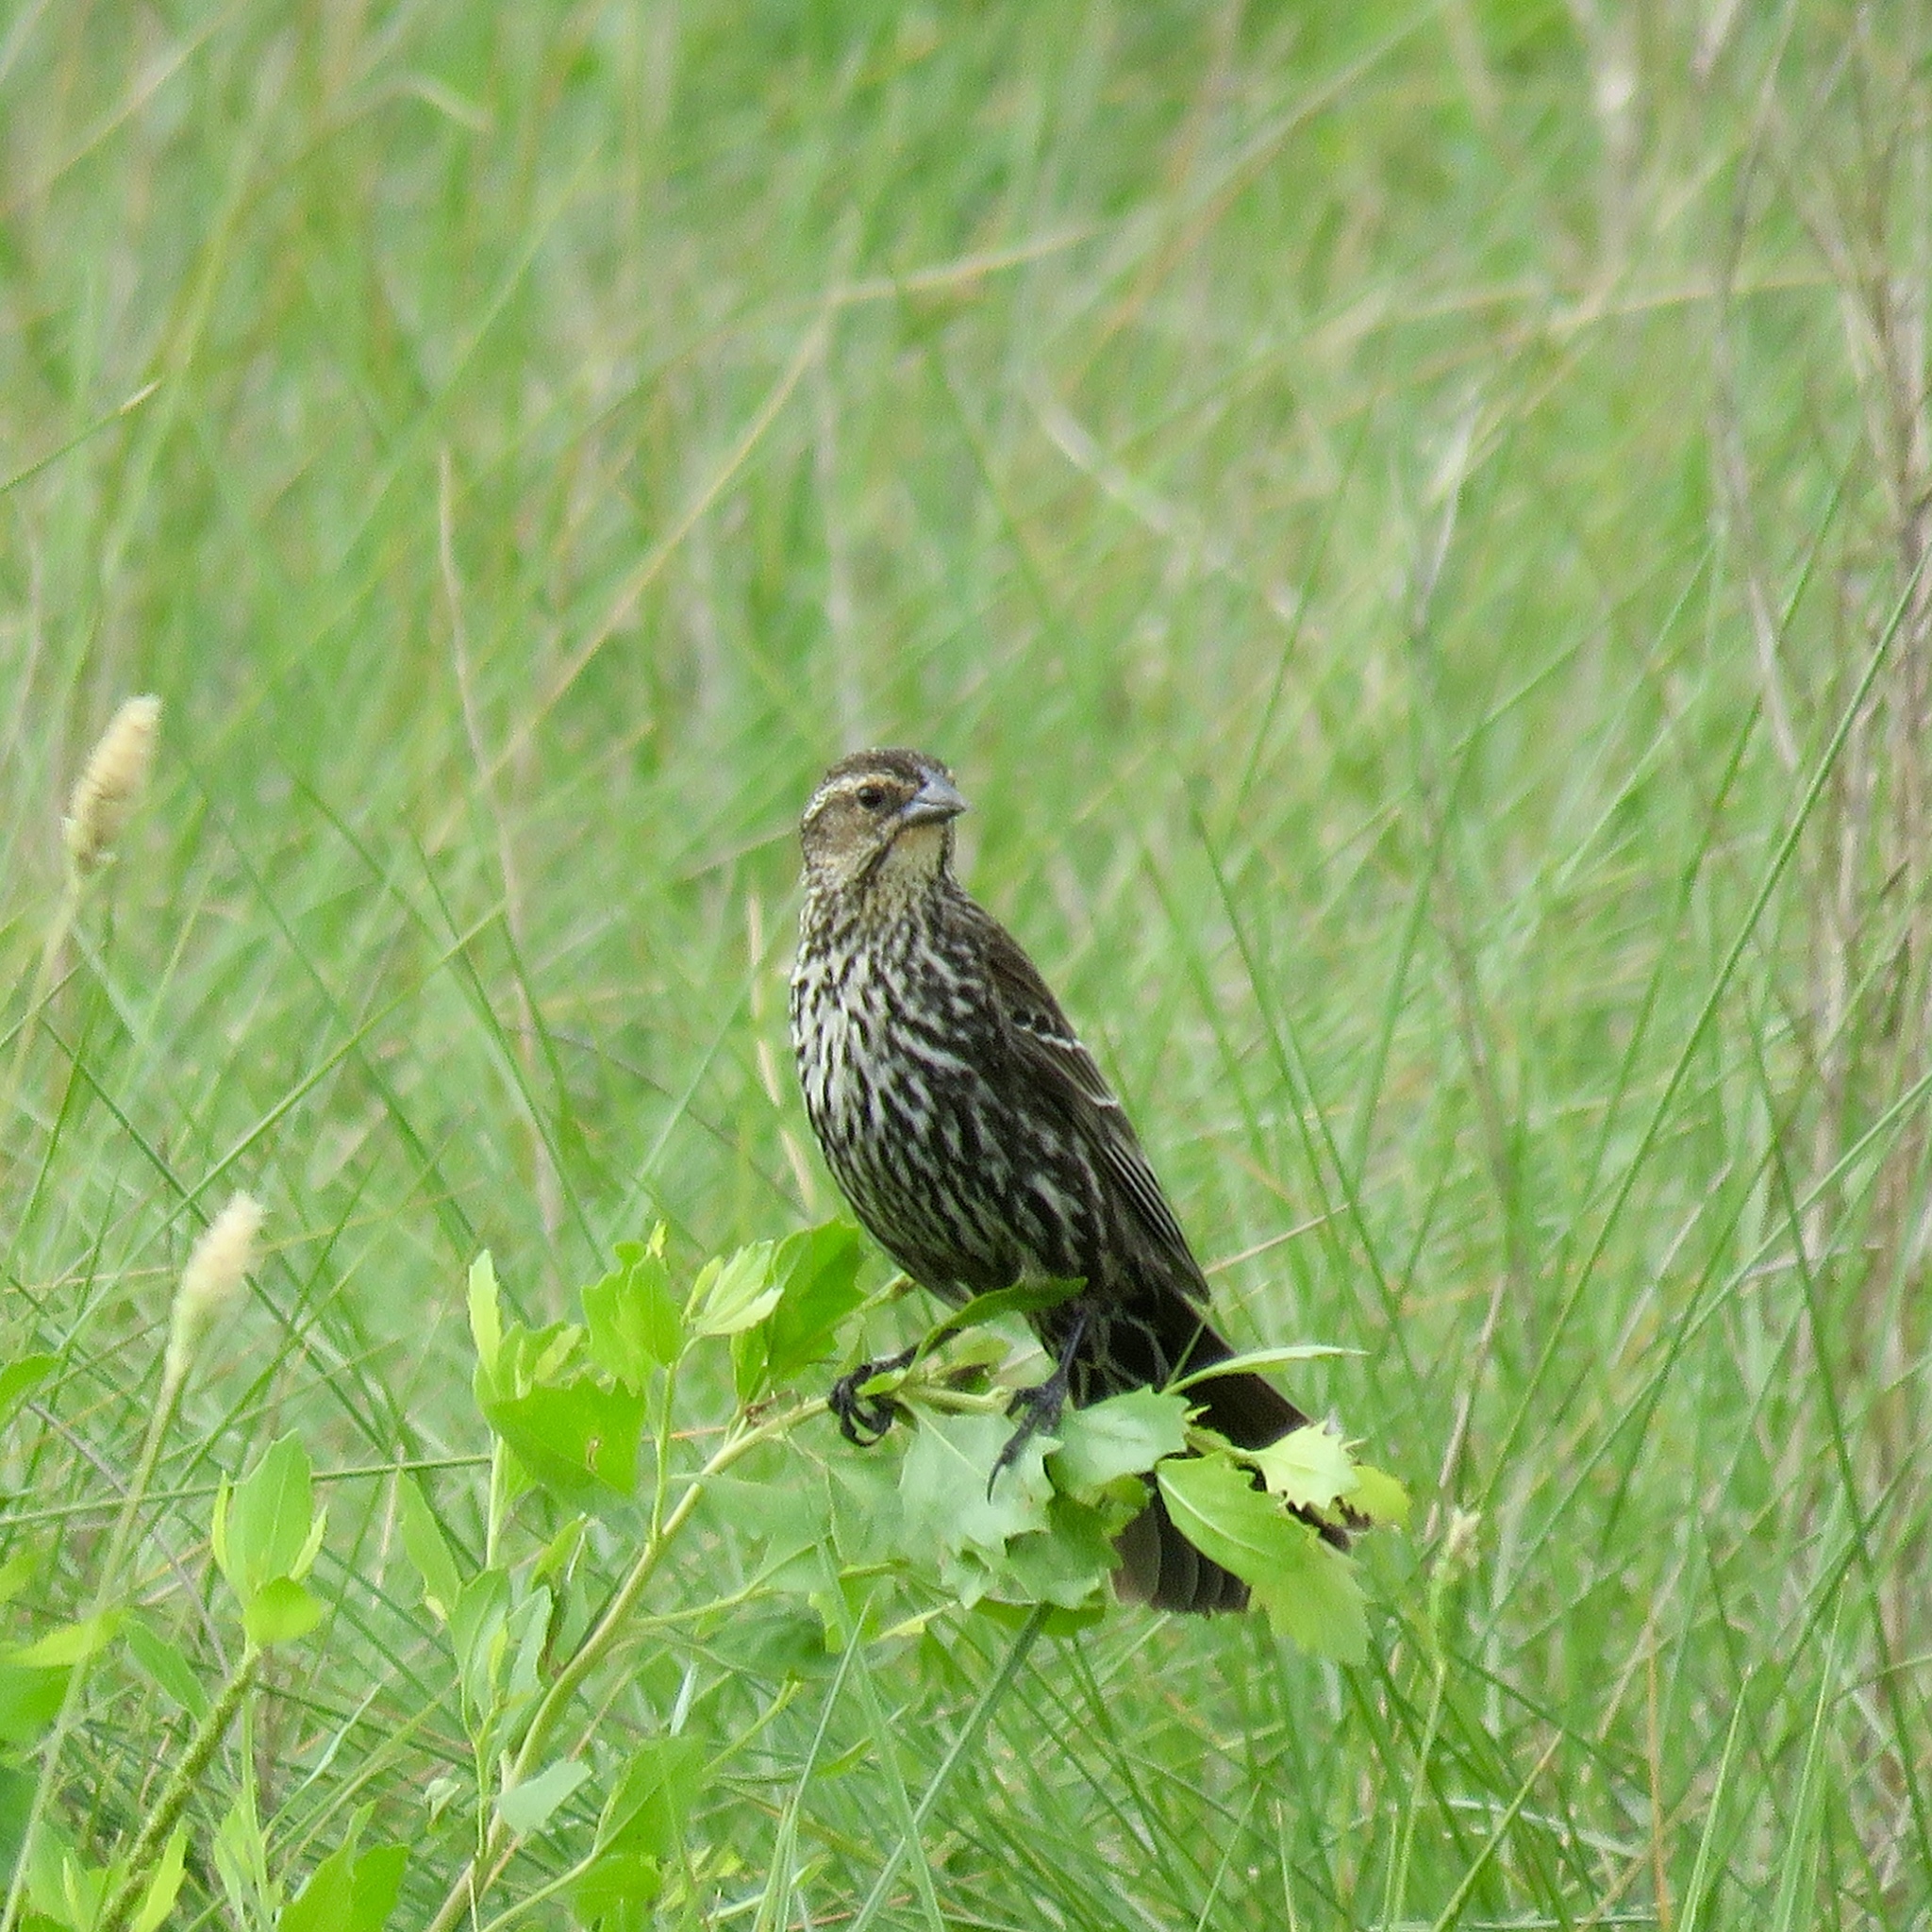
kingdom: Animalia
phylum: Chordata
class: Aves
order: Passeriformes
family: Icteridae
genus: Agelaius
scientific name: Agelaius phoeniceus
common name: Red-winged blackbird
